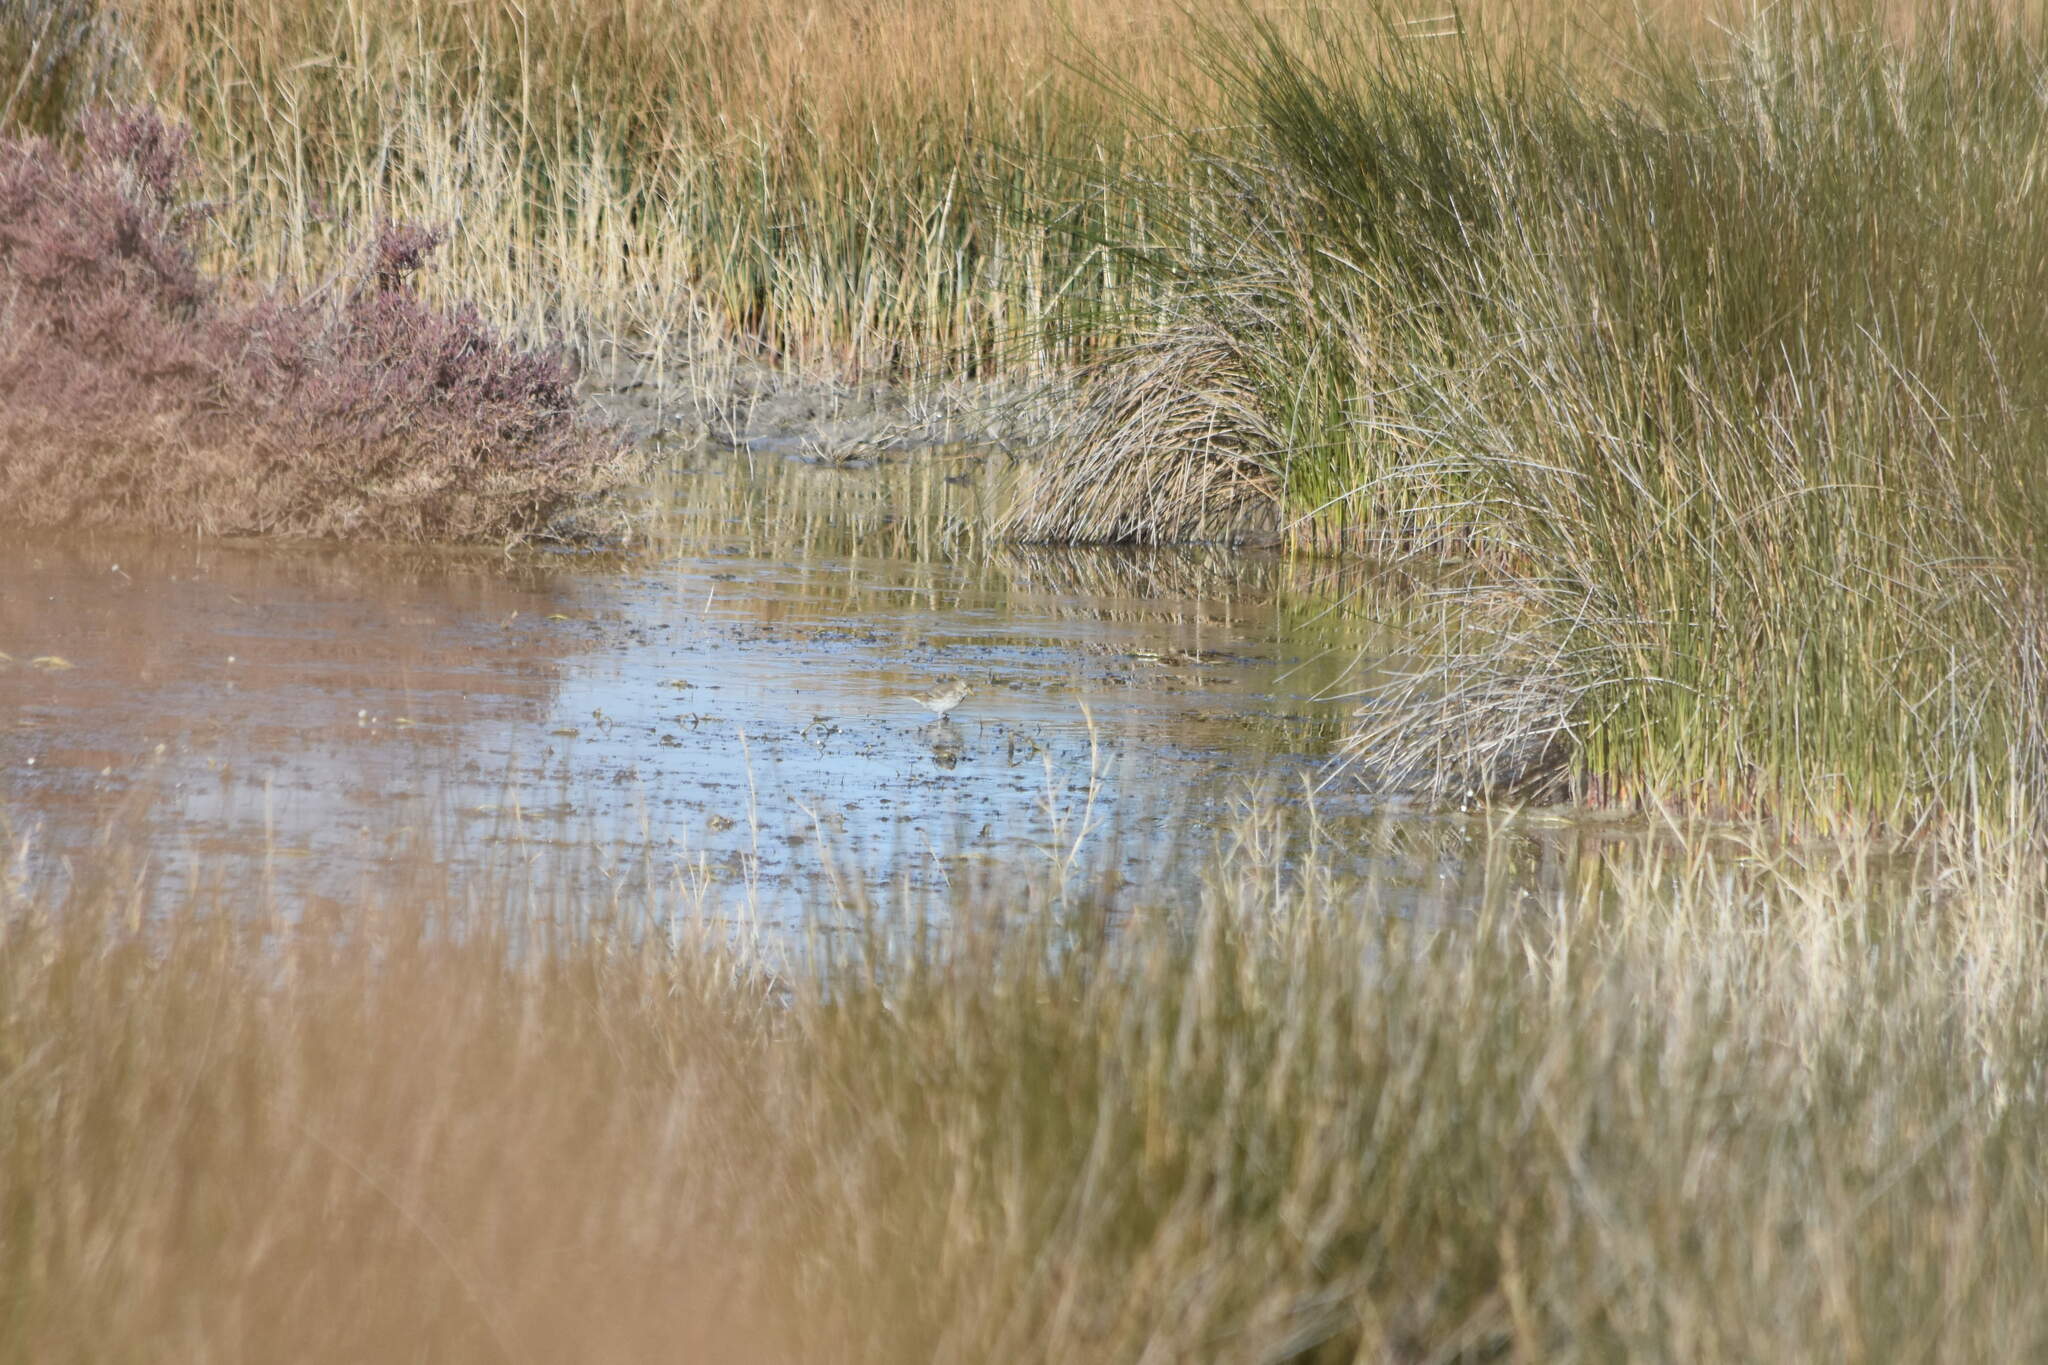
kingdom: Animalia
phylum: Chordata
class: Aves
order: Passeriformes
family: Motacillidae
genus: Anthus
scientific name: Anthus spinoletta
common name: Water pipit
